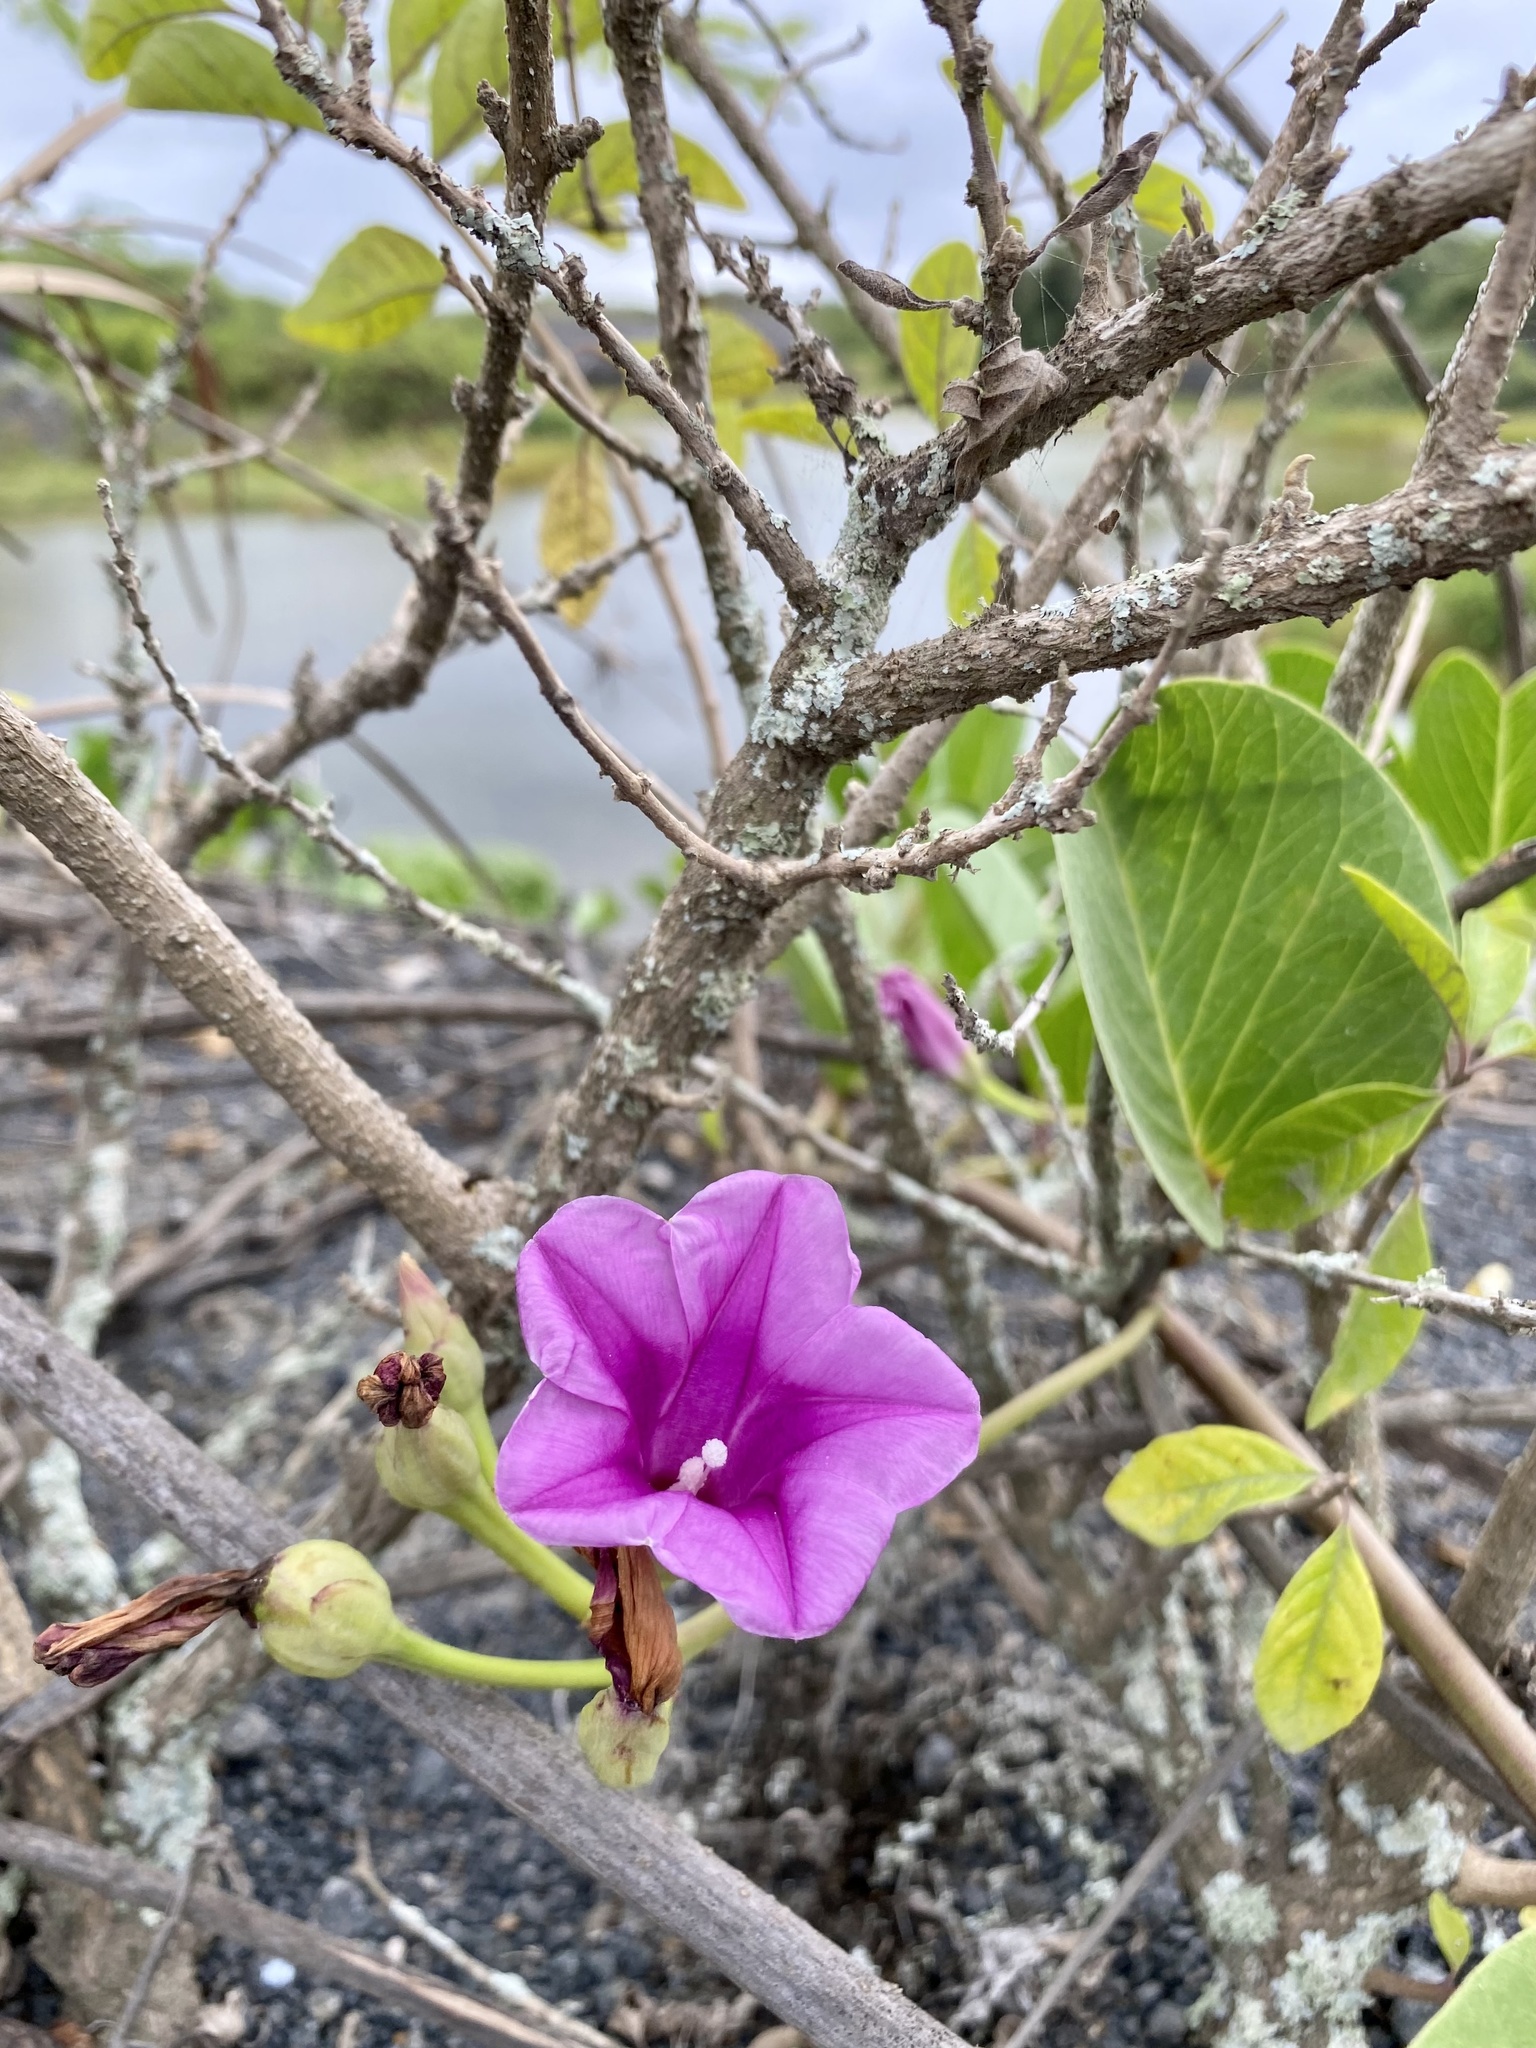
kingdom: Plantae
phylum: Tracheophyta
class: Magnoliopsida
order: Solanales
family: Convolvulaceae
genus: Ipomoea
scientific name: Ipomoea pes-caprae
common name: Beach morning glory
